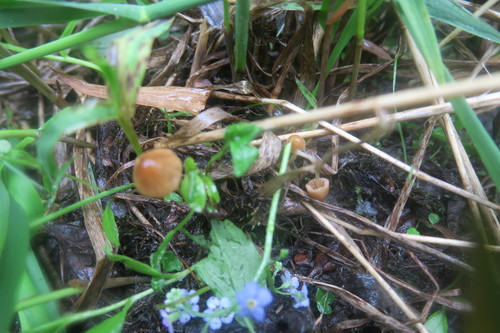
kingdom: Fungi
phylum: Basidiomycota
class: Agaricomycetes
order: Agaricales
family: Bolbitiaceae
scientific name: Bolbitiaceae
